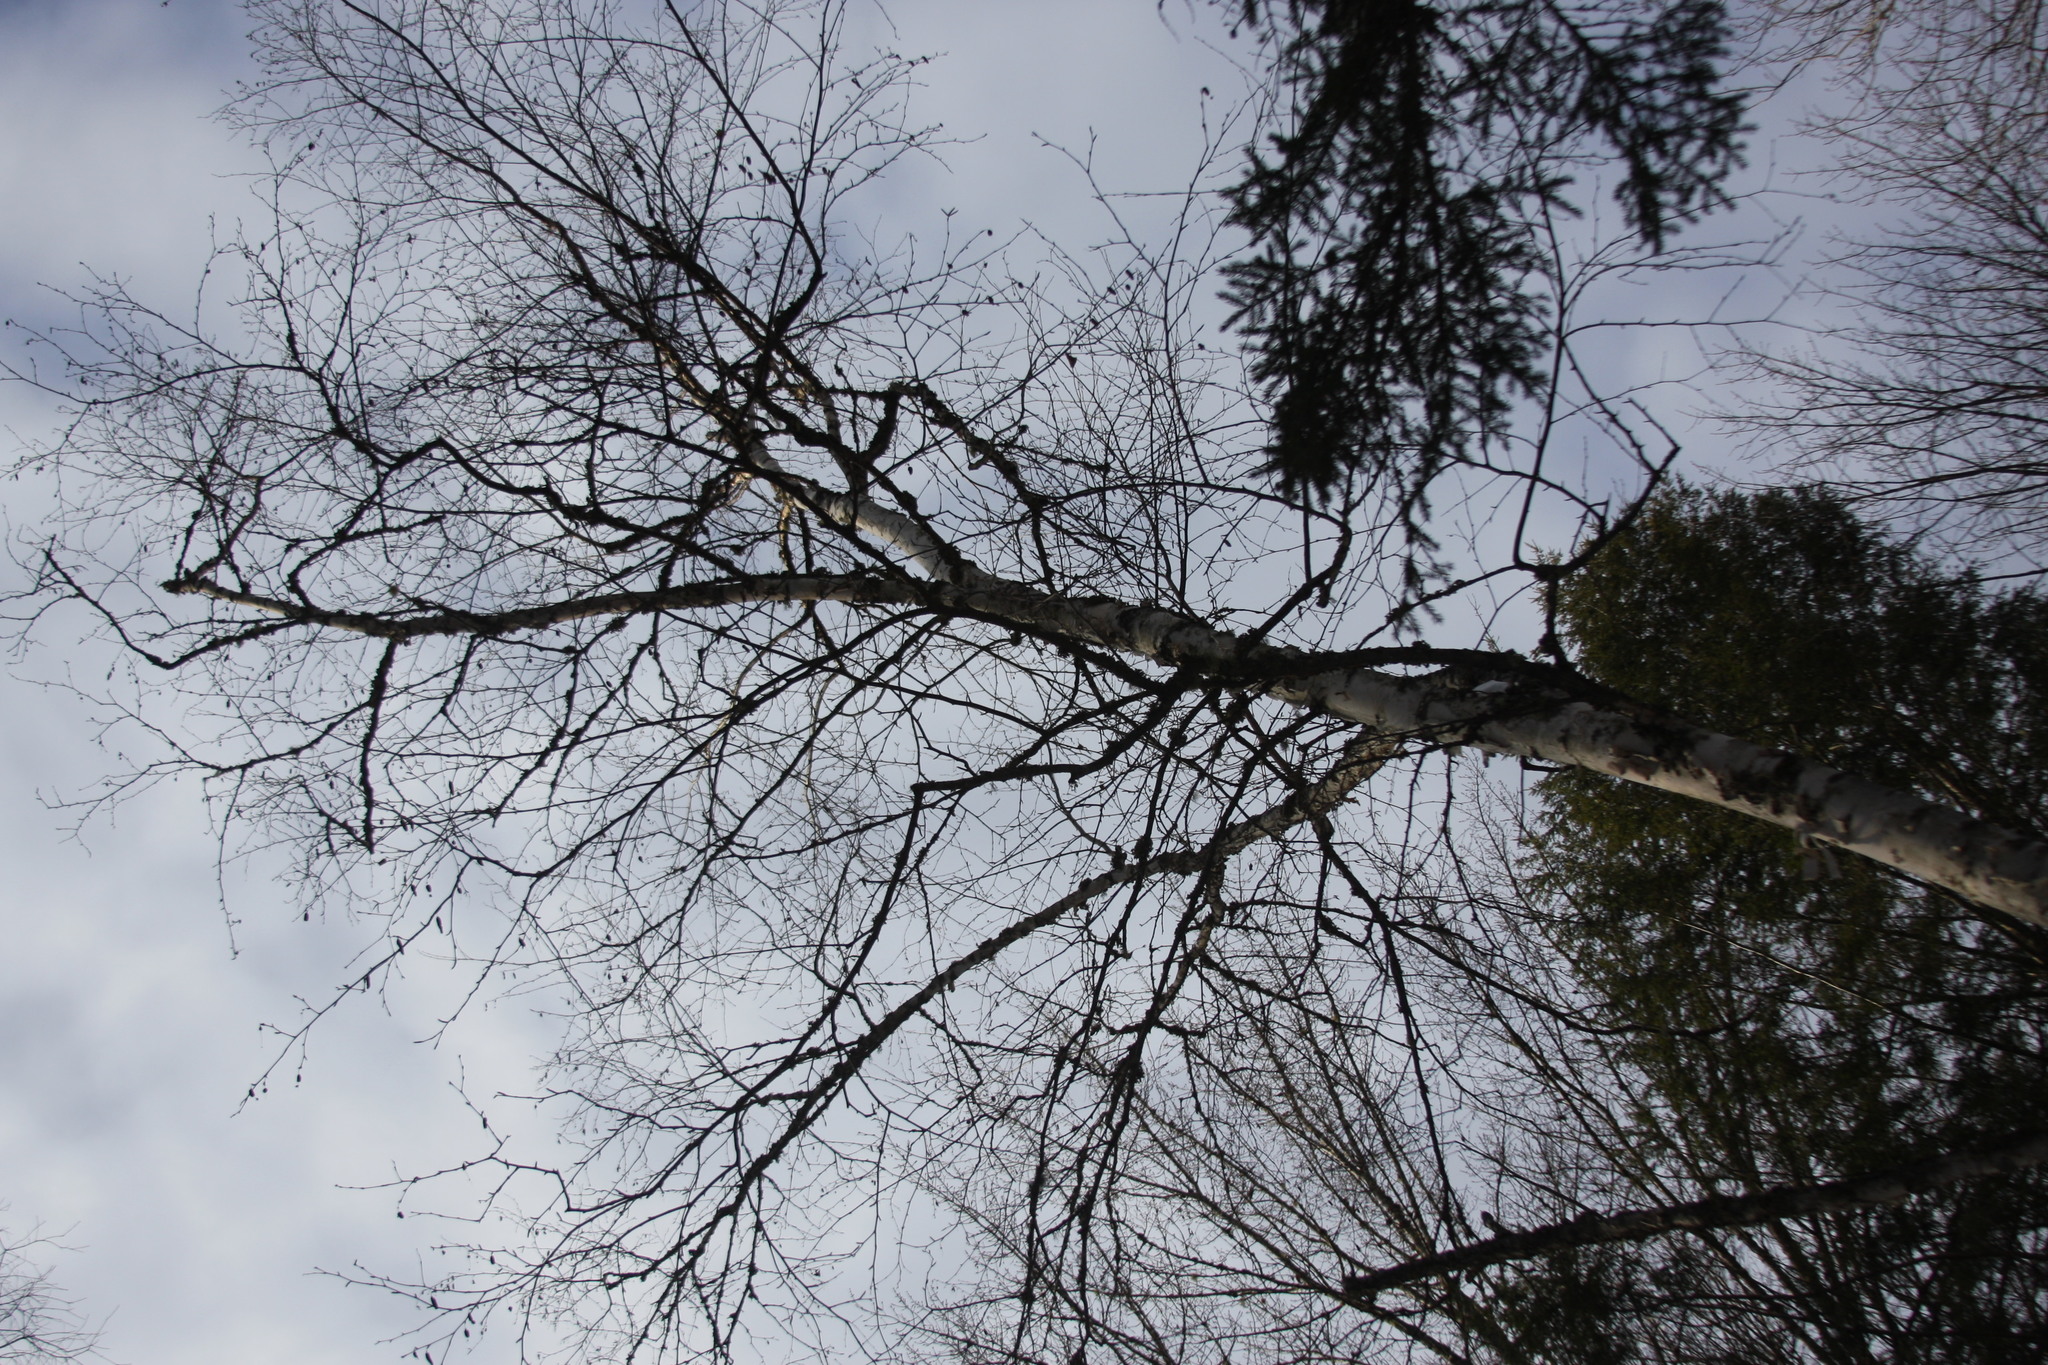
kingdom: Plantae
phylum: Tracheophyta
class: Magnoliopsida
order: Fagales
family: Betulaceae
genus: Betula
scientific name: Betula papyrifera
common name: Paper birch
